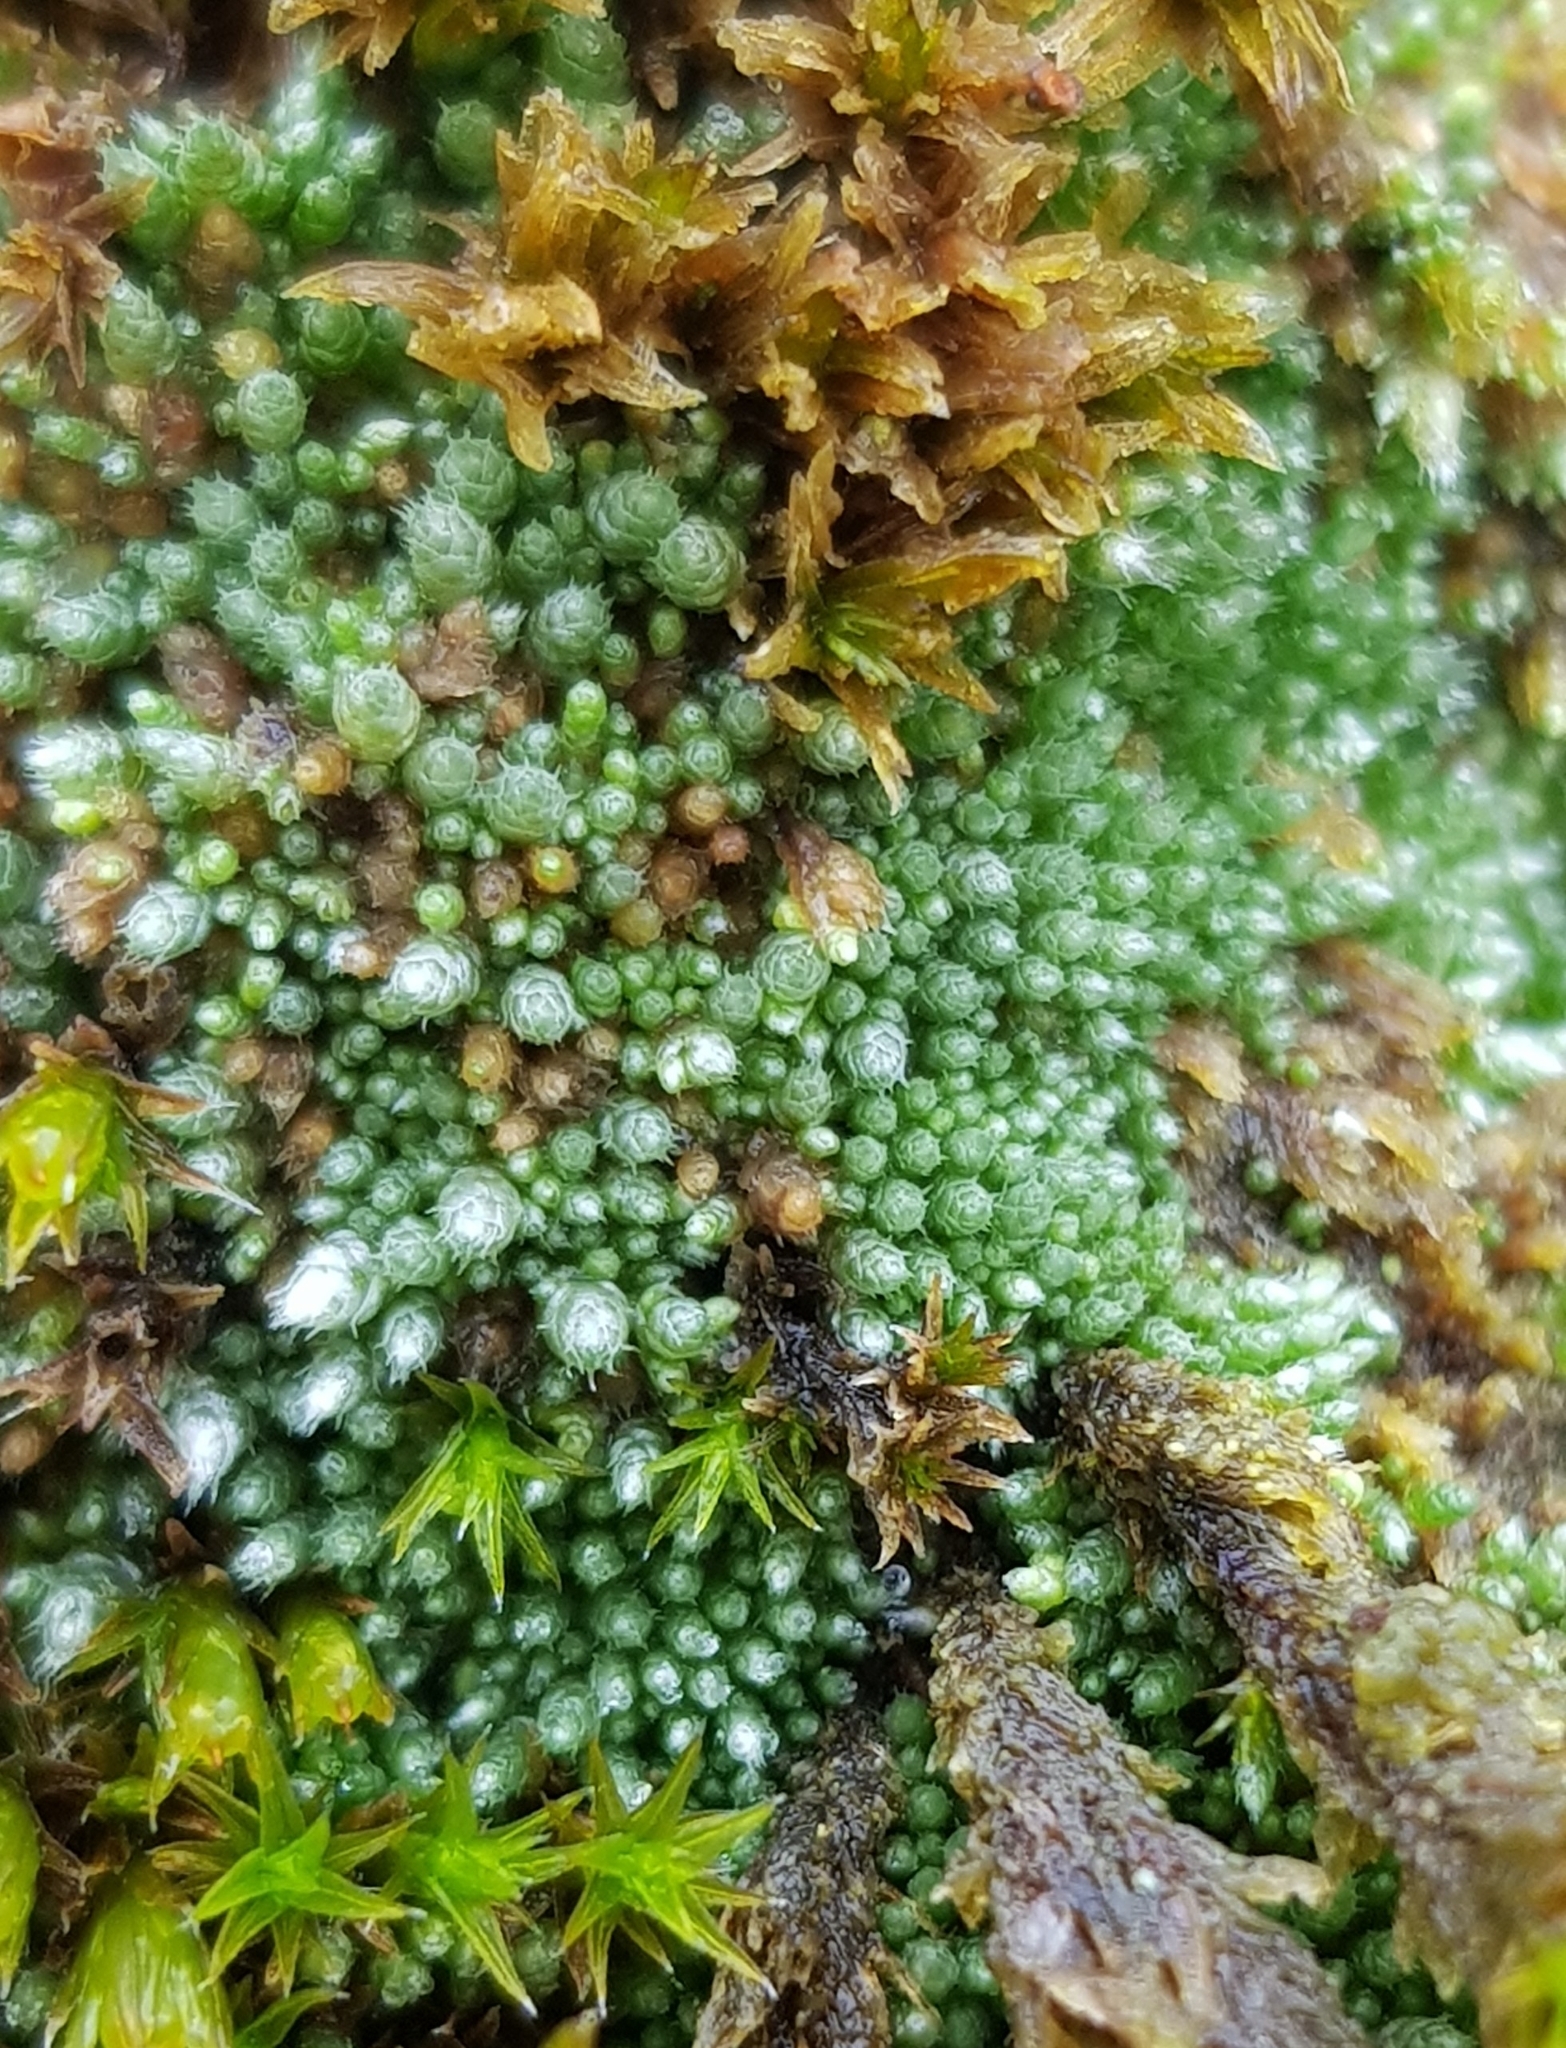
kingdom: Plantae
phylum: Bryophyta
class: Bryopsida
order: Bryales
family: Bryaceae
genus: Bryum
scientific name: Bryum argenteum
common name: Silver-moss
